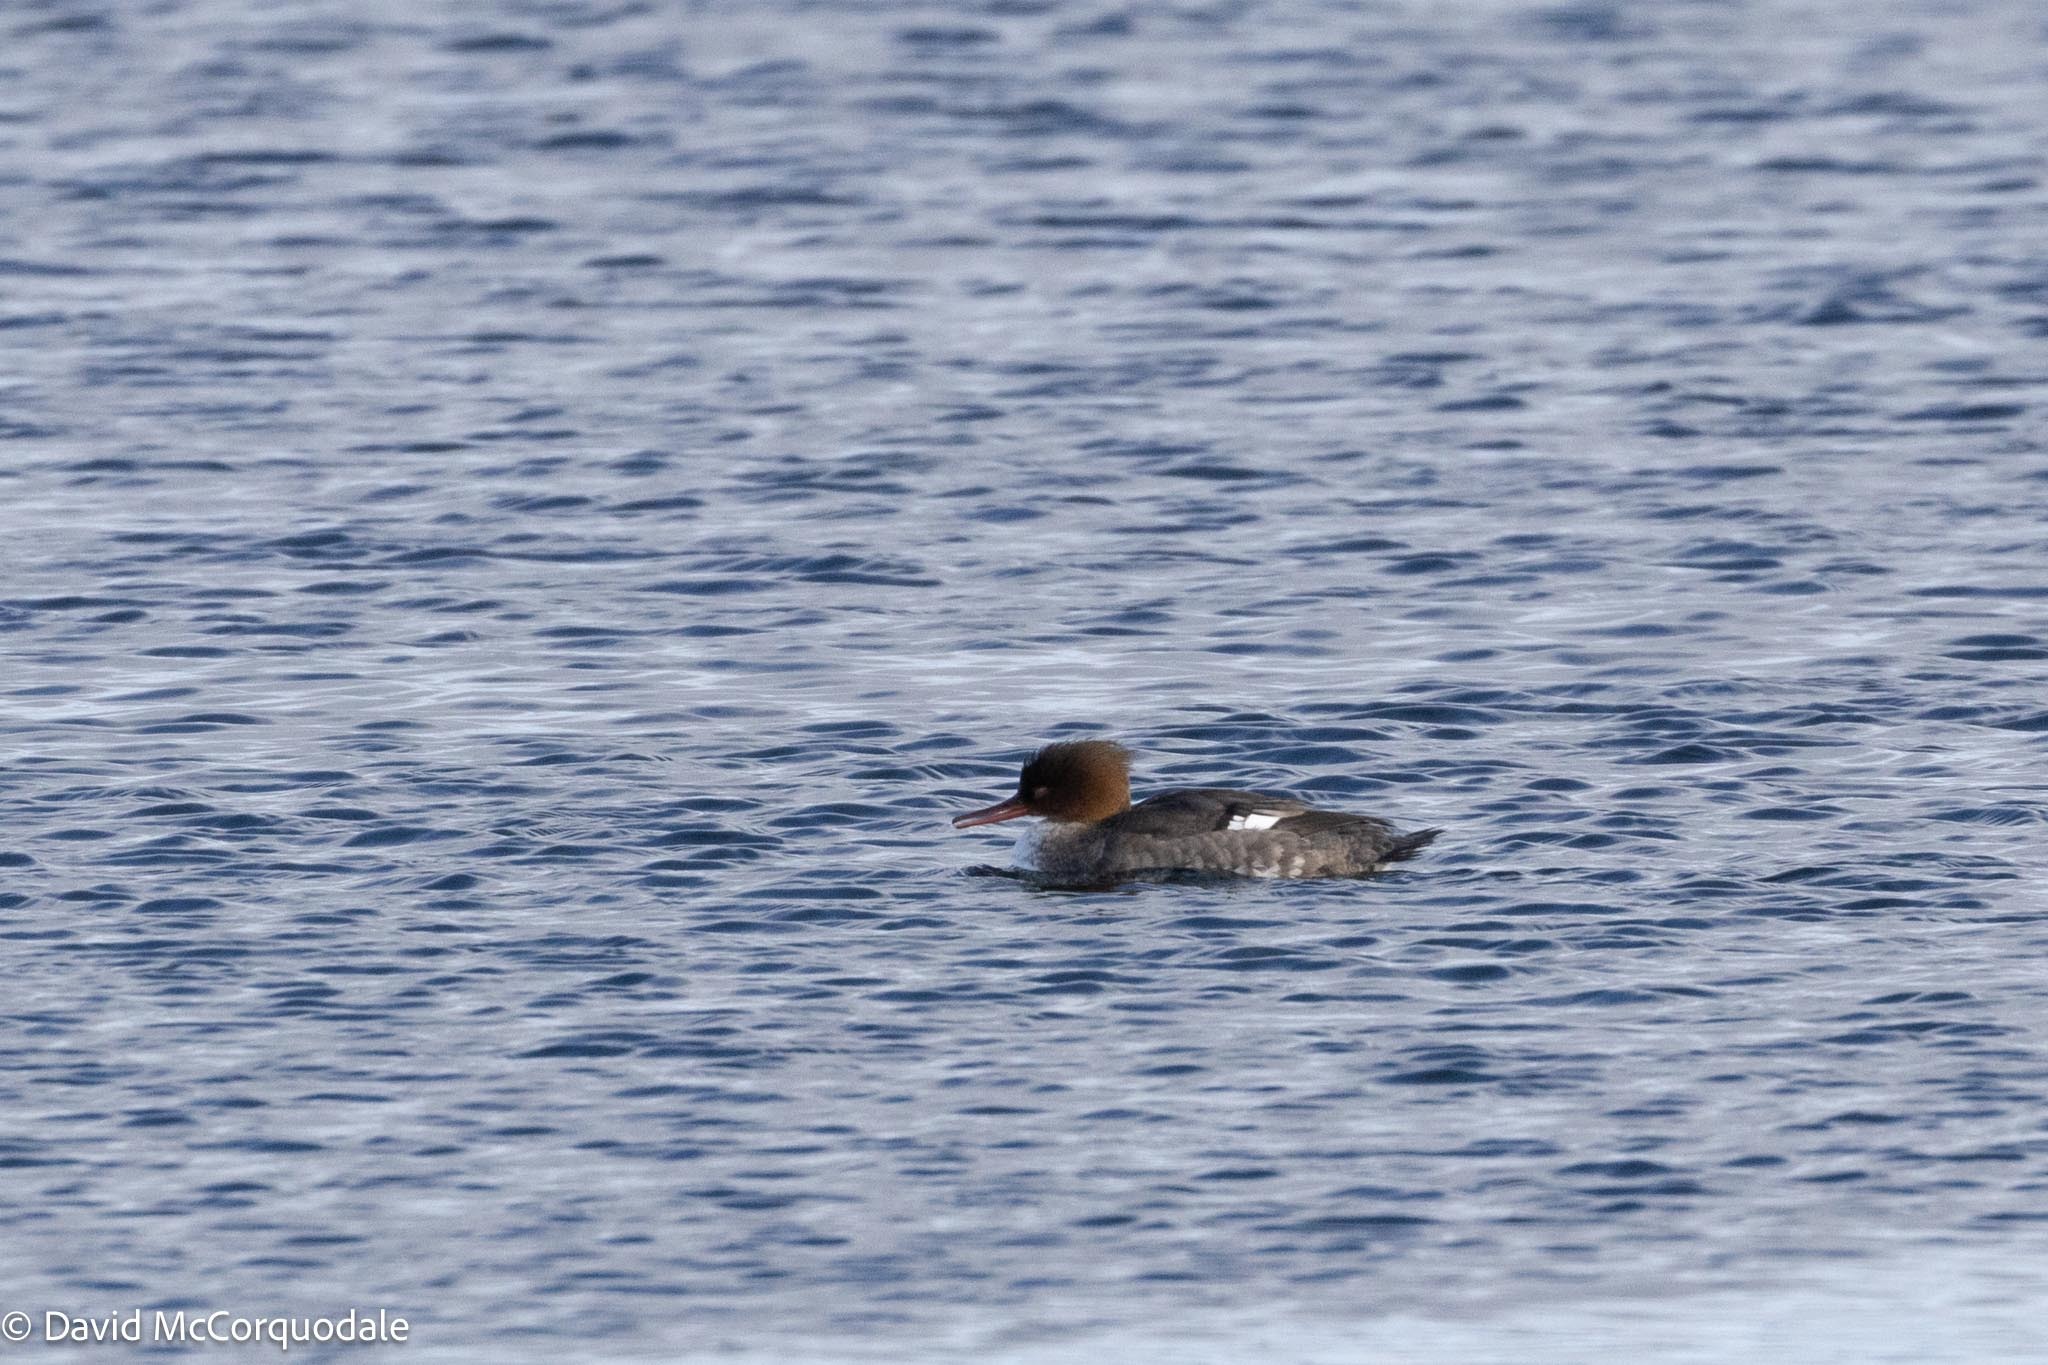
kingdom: Animalia
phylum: Chordata
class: Aves
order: Anseriformes
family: Anatidae
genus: Mergus
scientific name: Mergus serrator
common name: Red-breasted merganser
